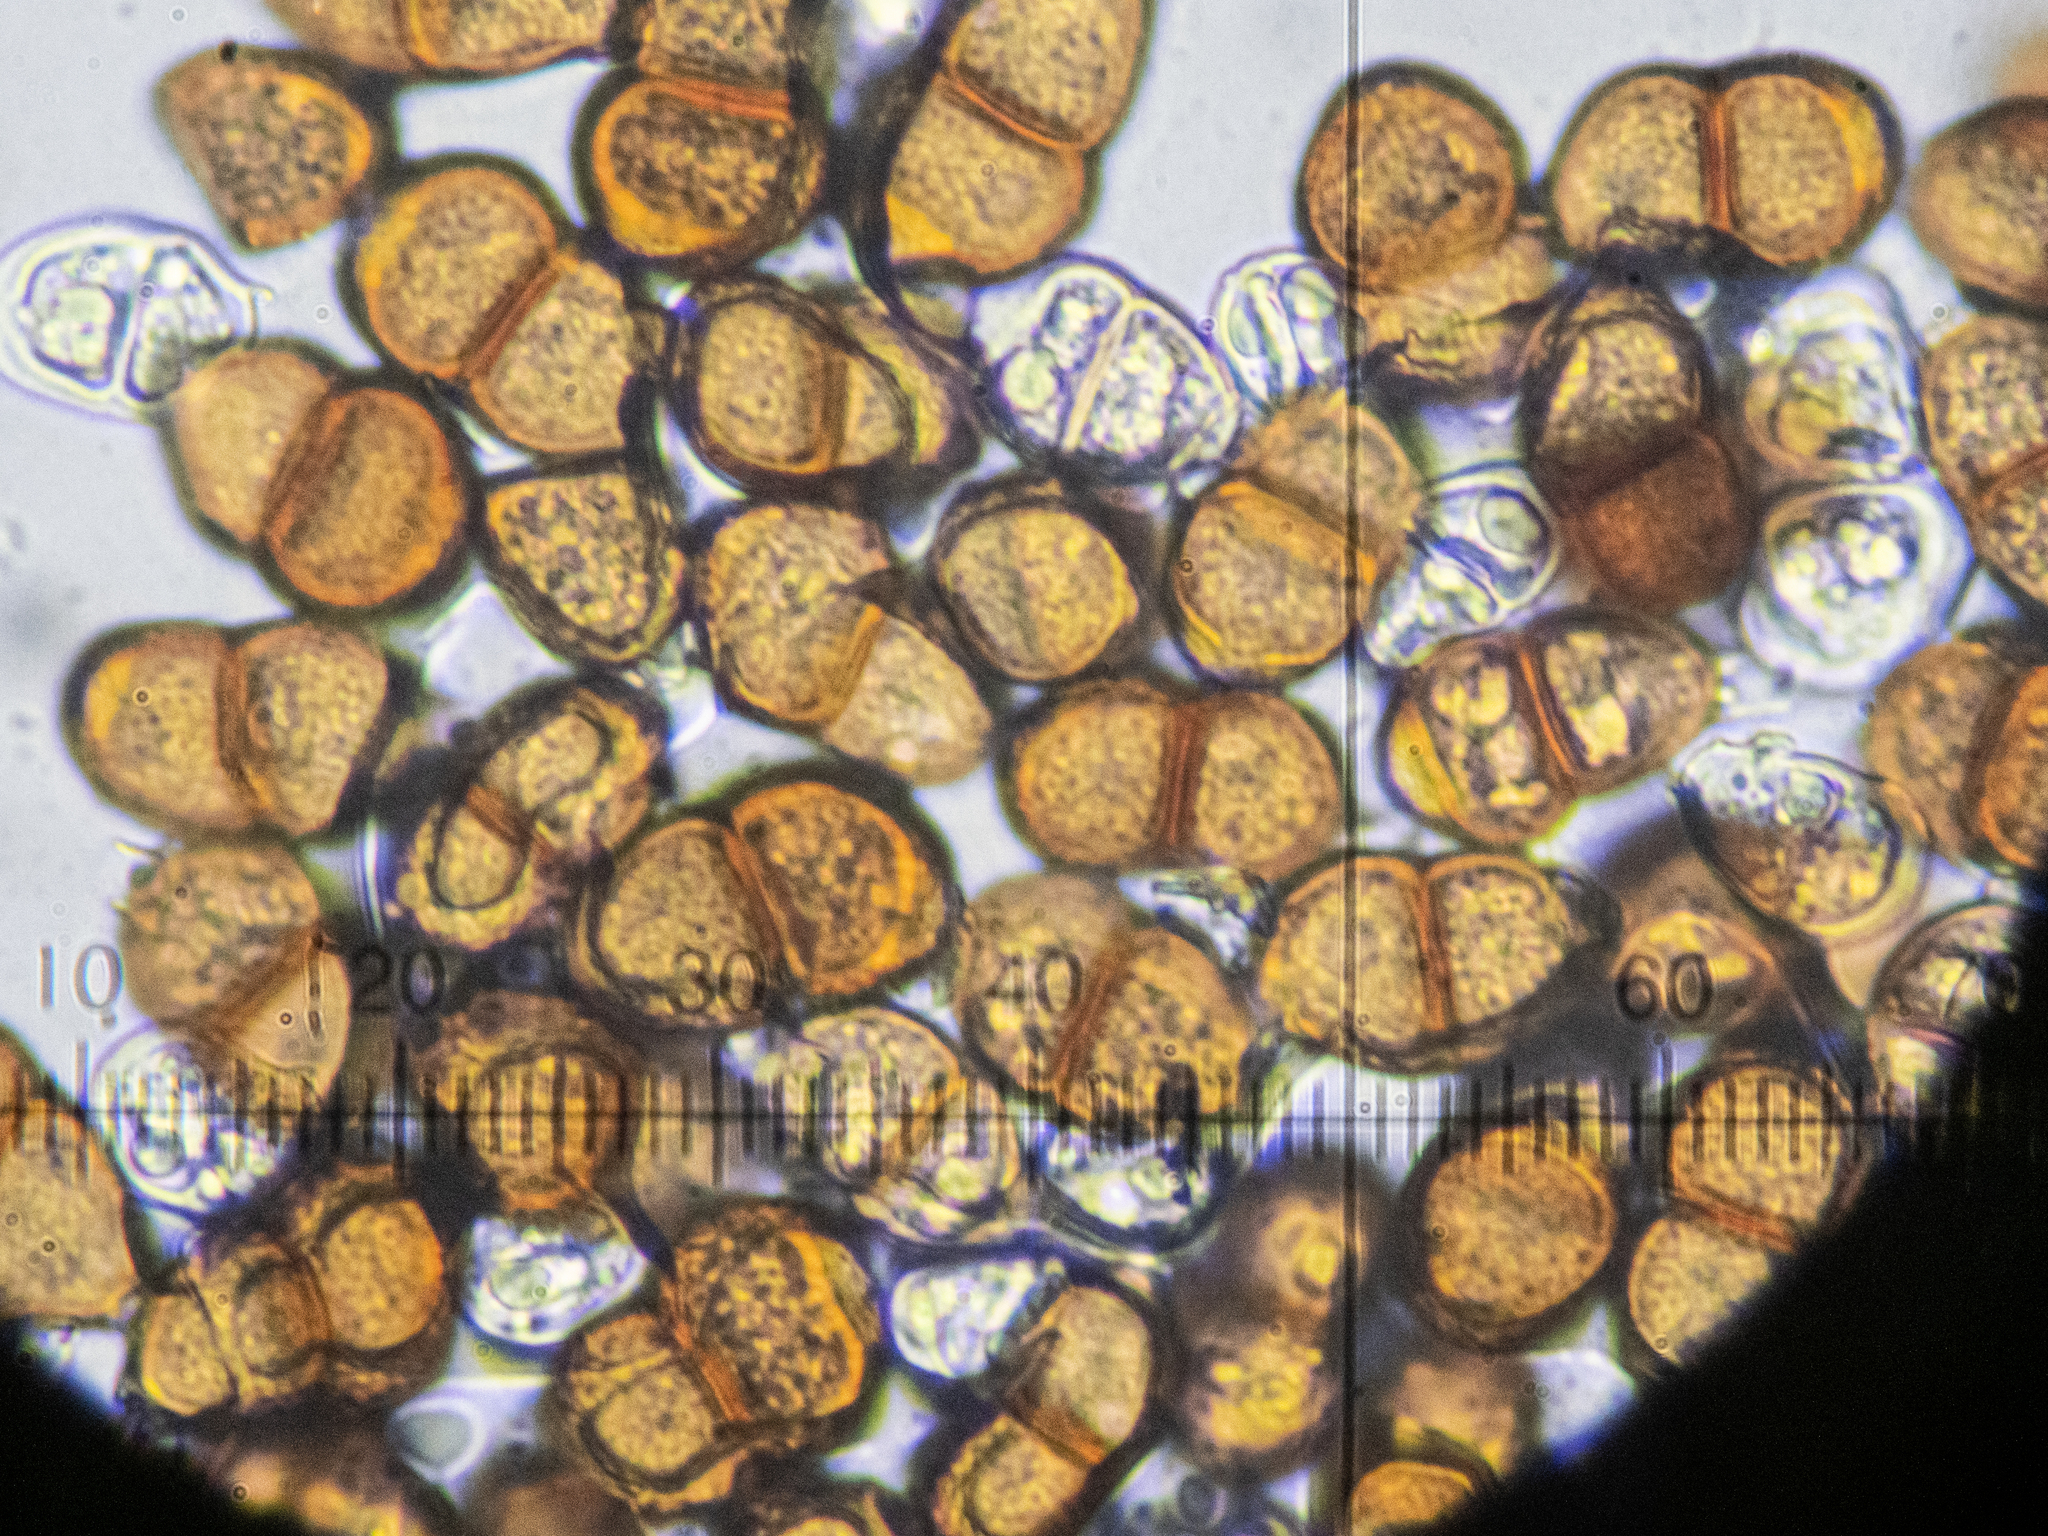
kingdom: Fungi
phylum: Basidiomycota
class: Pucciniomycetes
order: Pucciniales
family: Pucciniaceae
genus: Puccinia
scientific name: Puccinia pulverulenta
